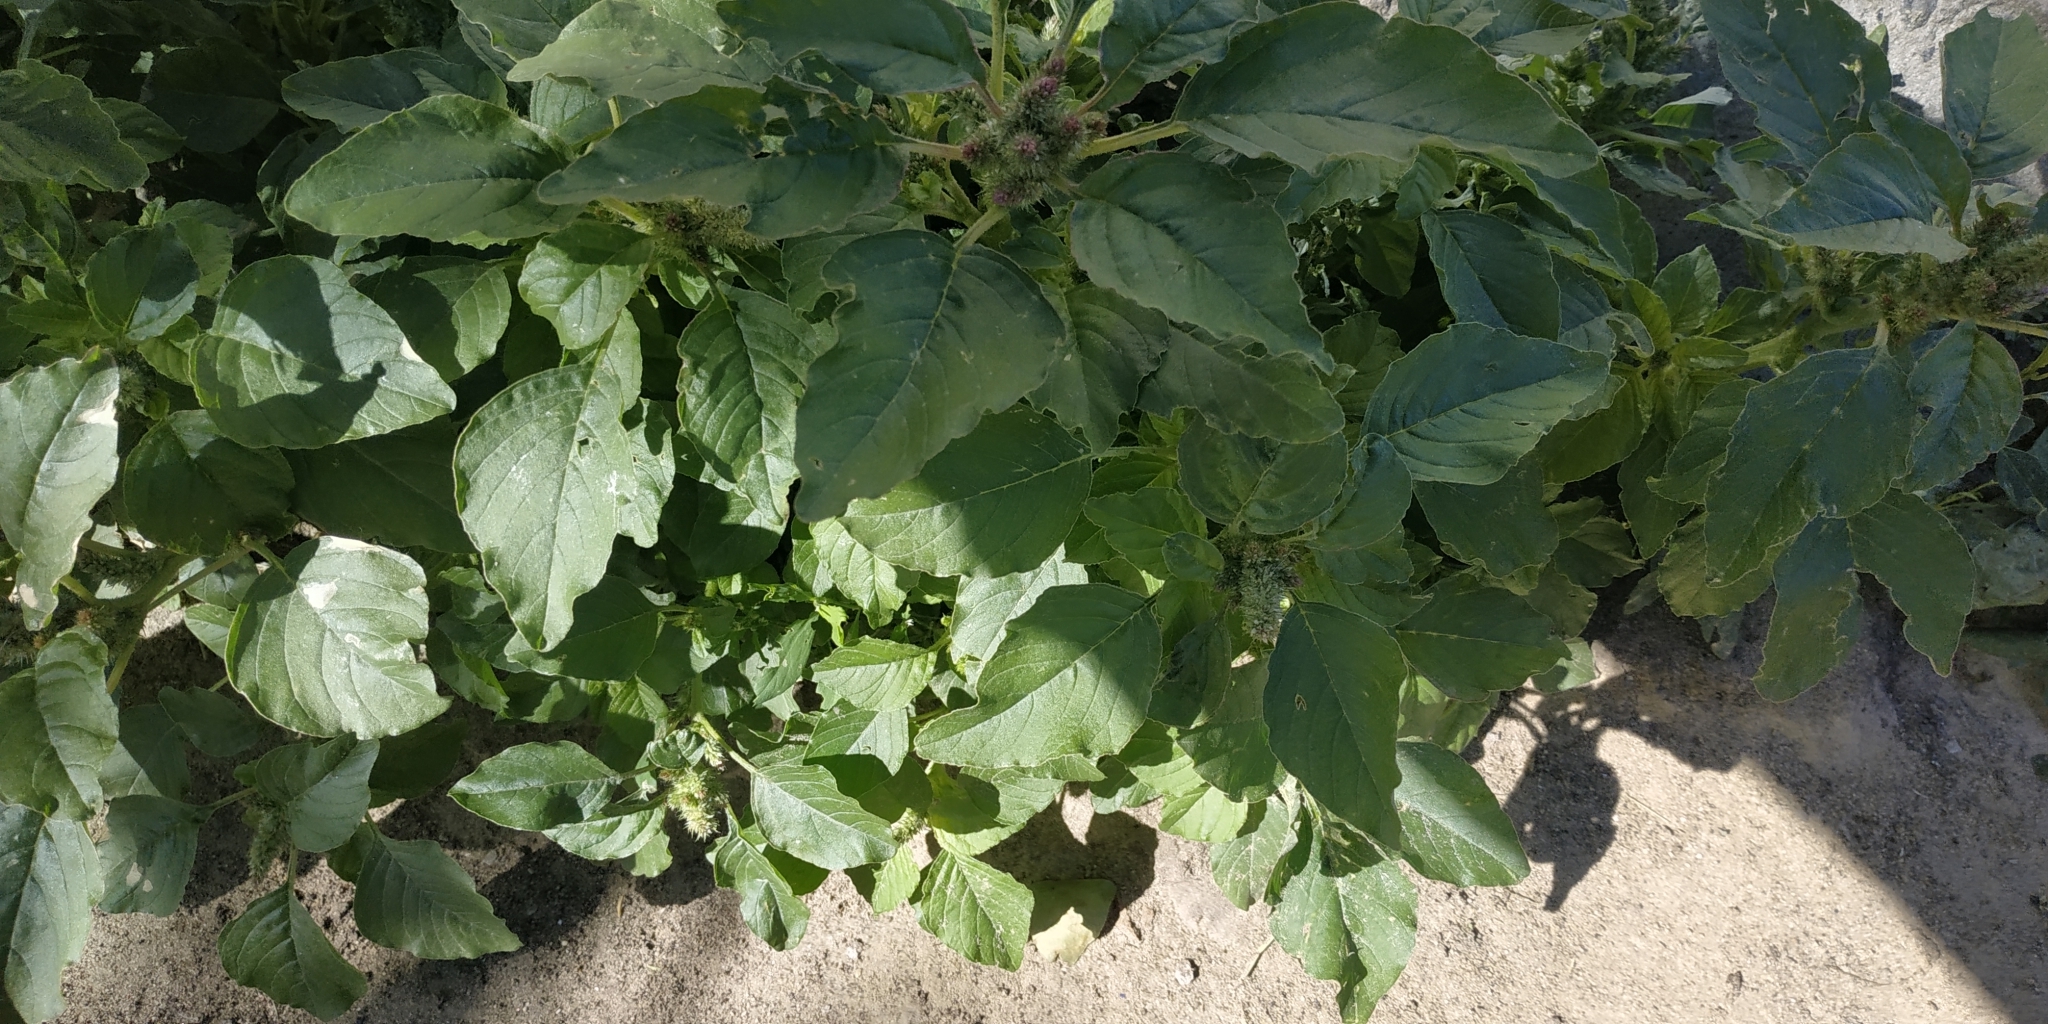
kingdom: Plantae
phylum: Tracheophyta
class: Magnoliopsida
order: Caryophyllales
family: Amaranthaceae
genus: Amaranthus
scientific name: Amaranthus retroflexus
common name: Redroot amaranth
